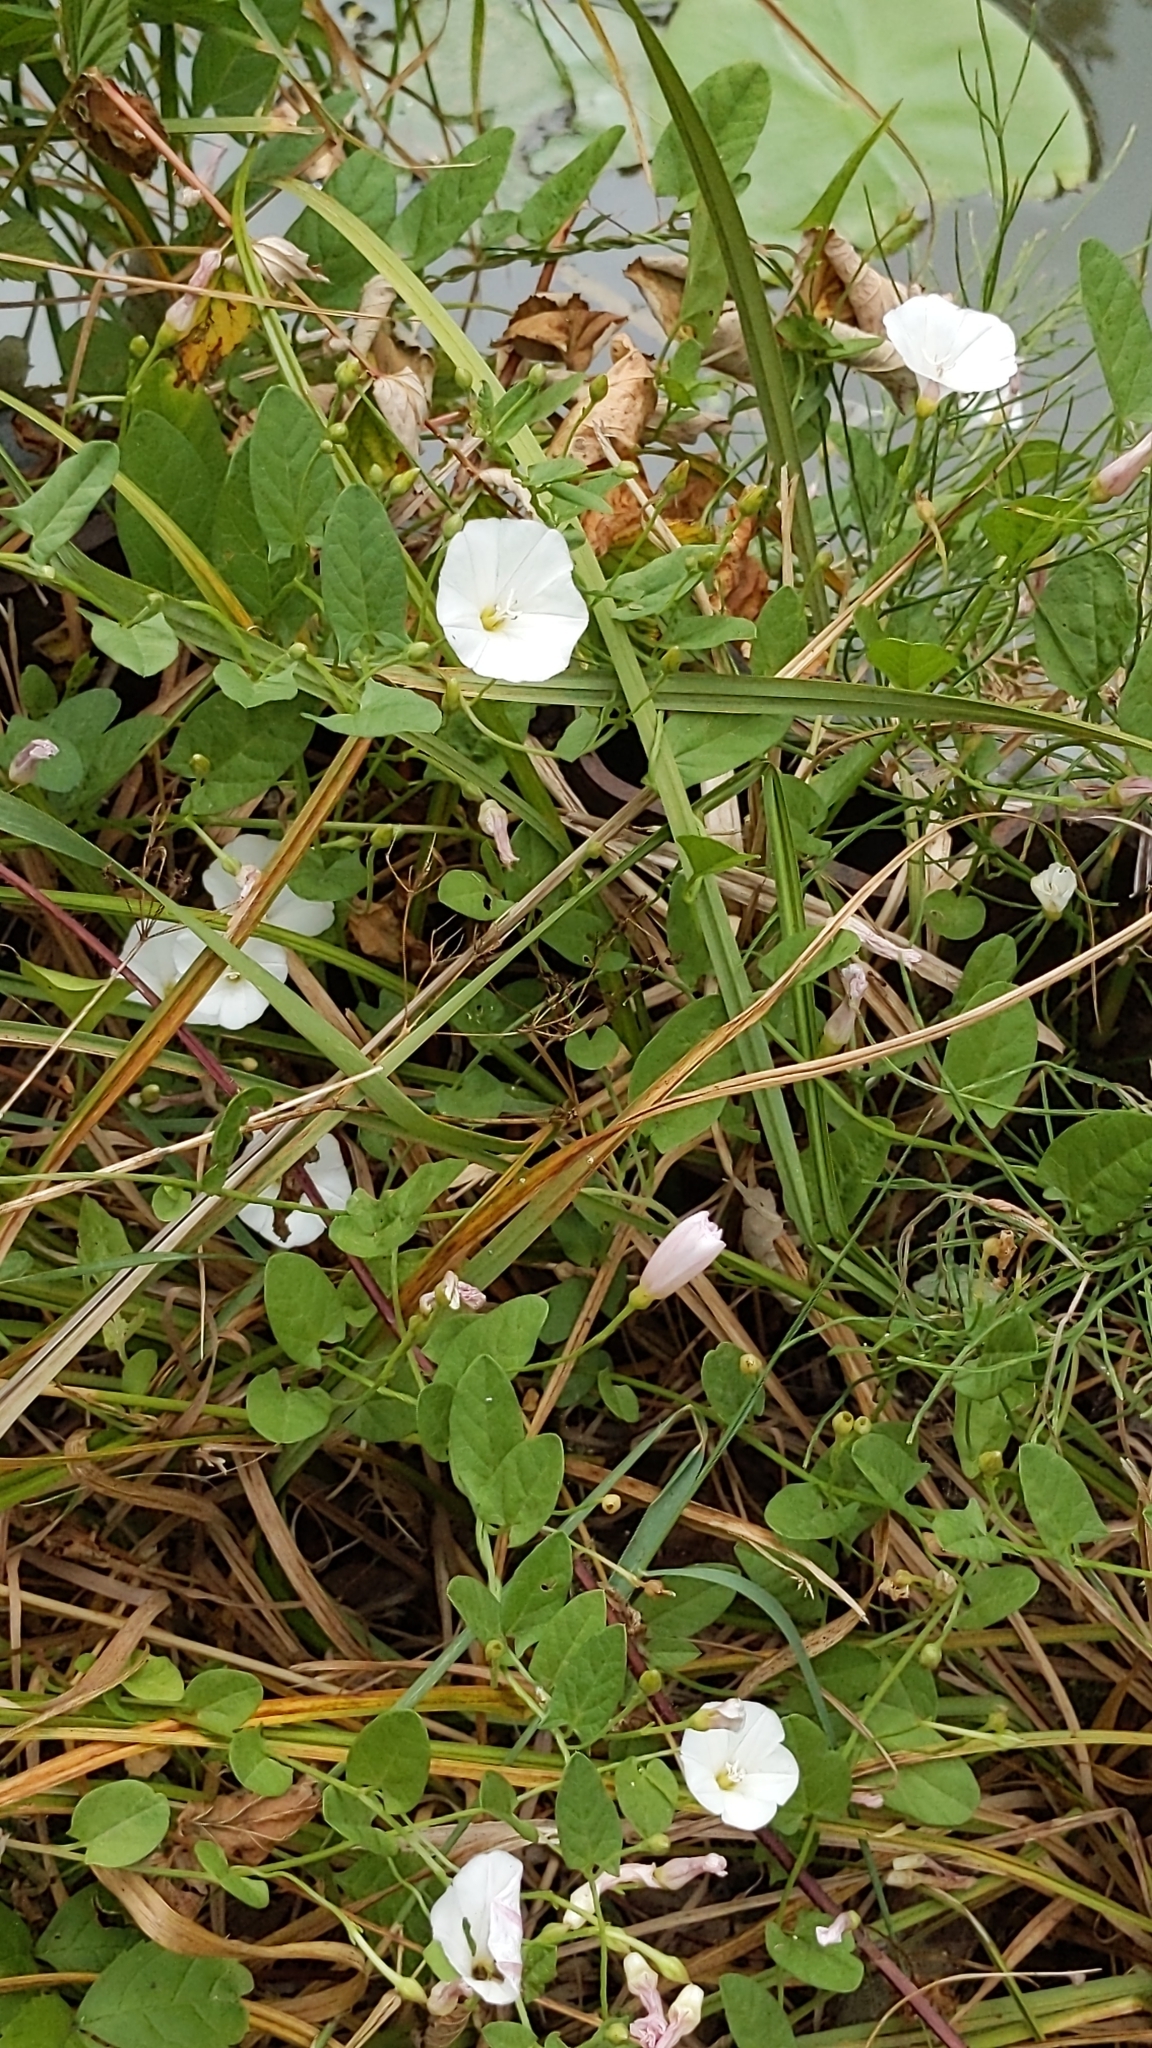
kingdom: Plantae
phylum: Tracheophyta
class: Magnoliopsida
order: Solanales
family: Convolvulaceae
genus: Convolvulus
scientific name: Convolvulus arvensis
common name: Field bindweed
